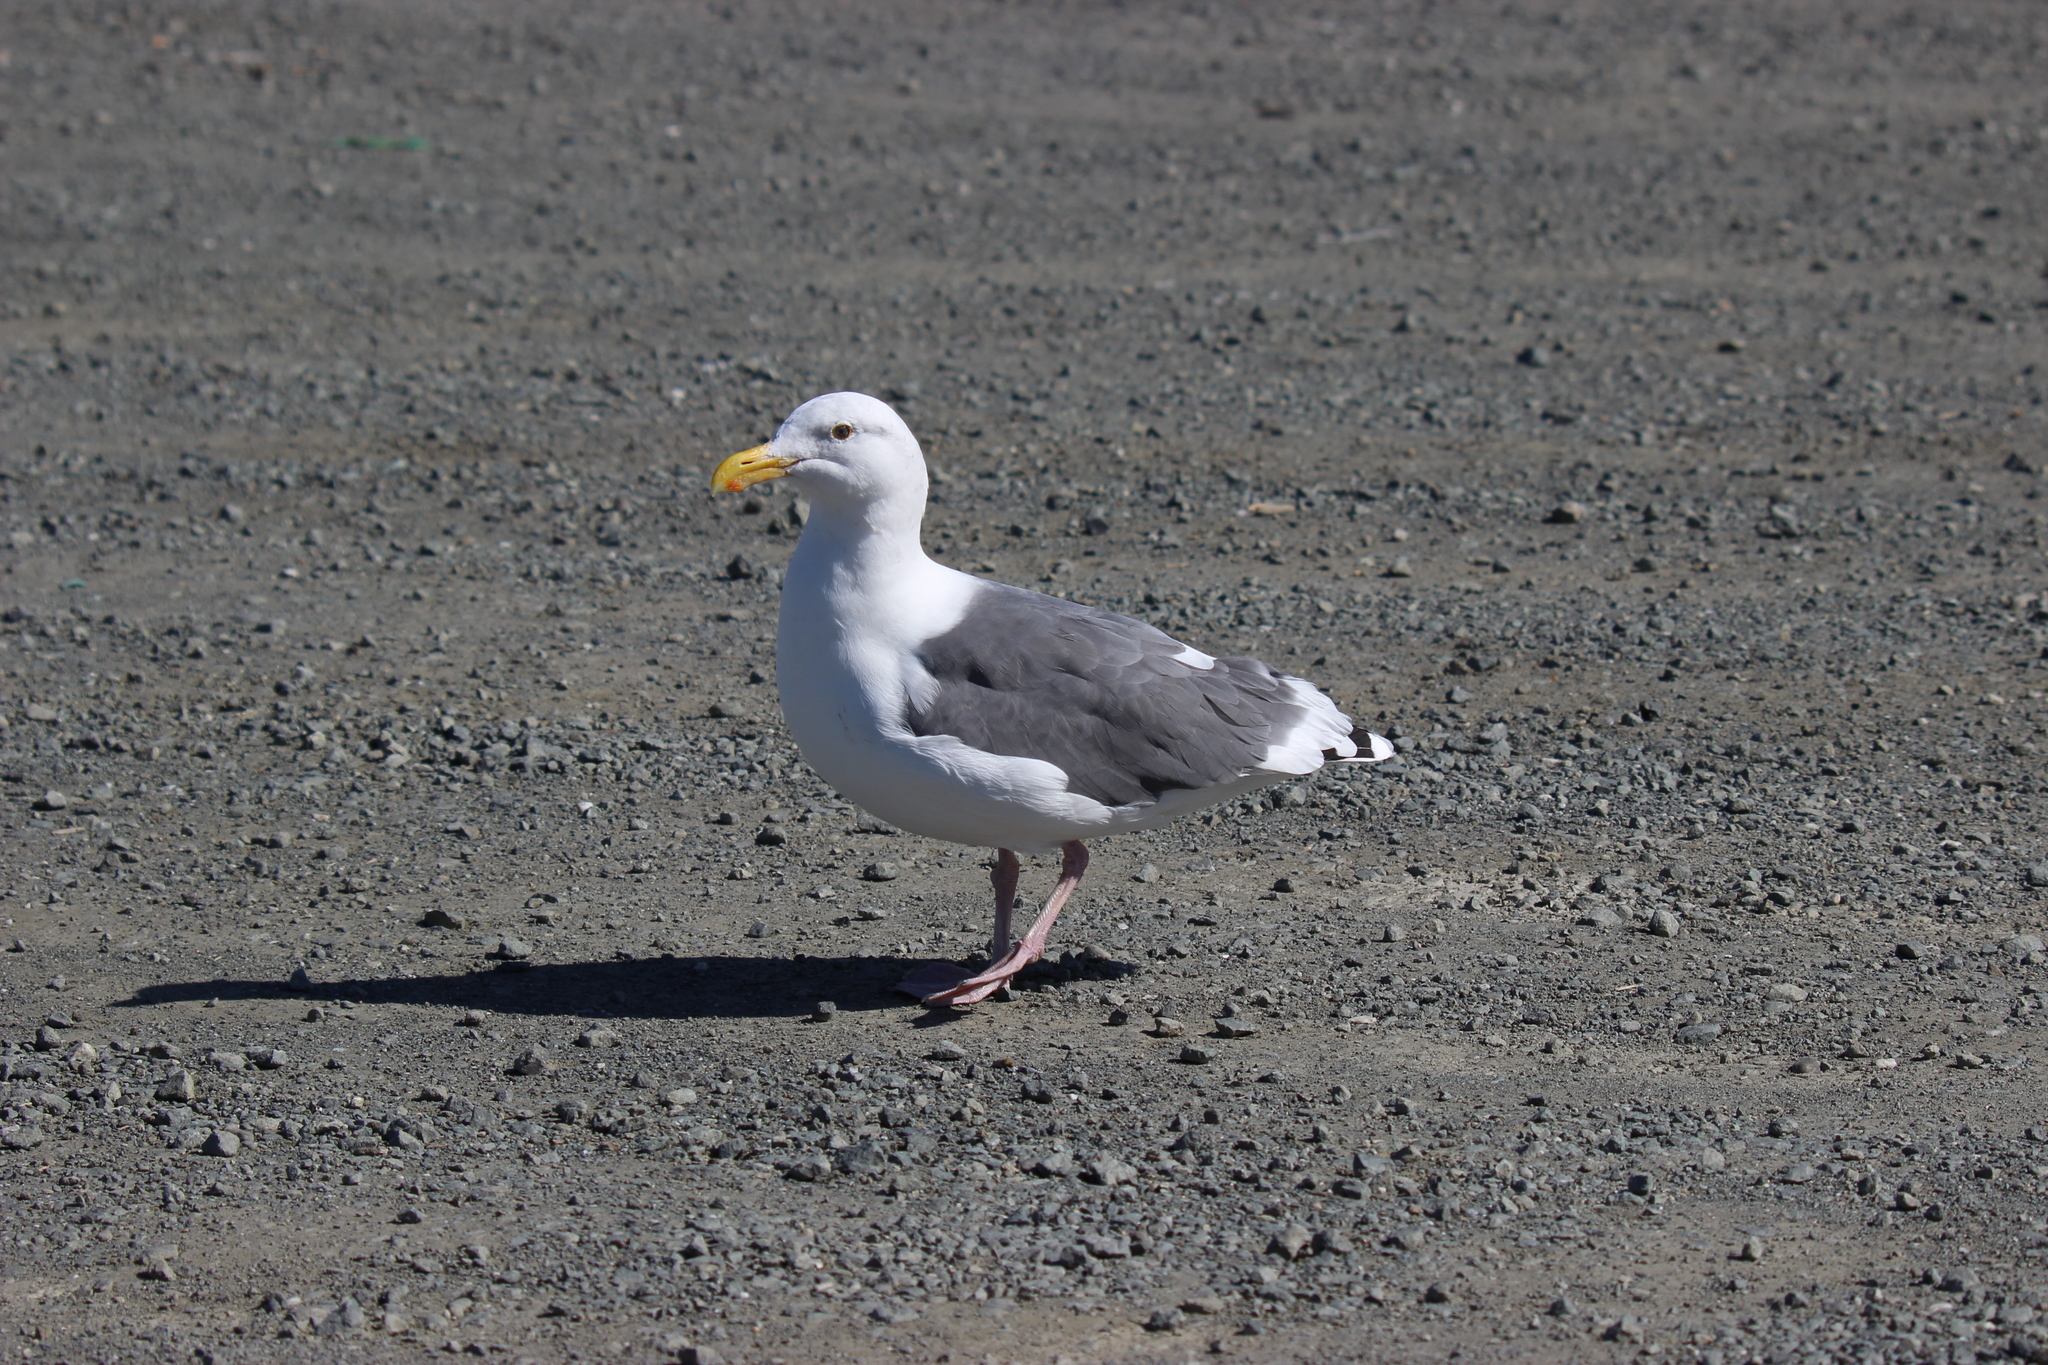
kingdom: Animalia
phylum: Chordata
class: Aves
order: Charadriiformes
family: Laridae
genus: Larus
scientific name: Larus occidentalis
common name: Western gull
